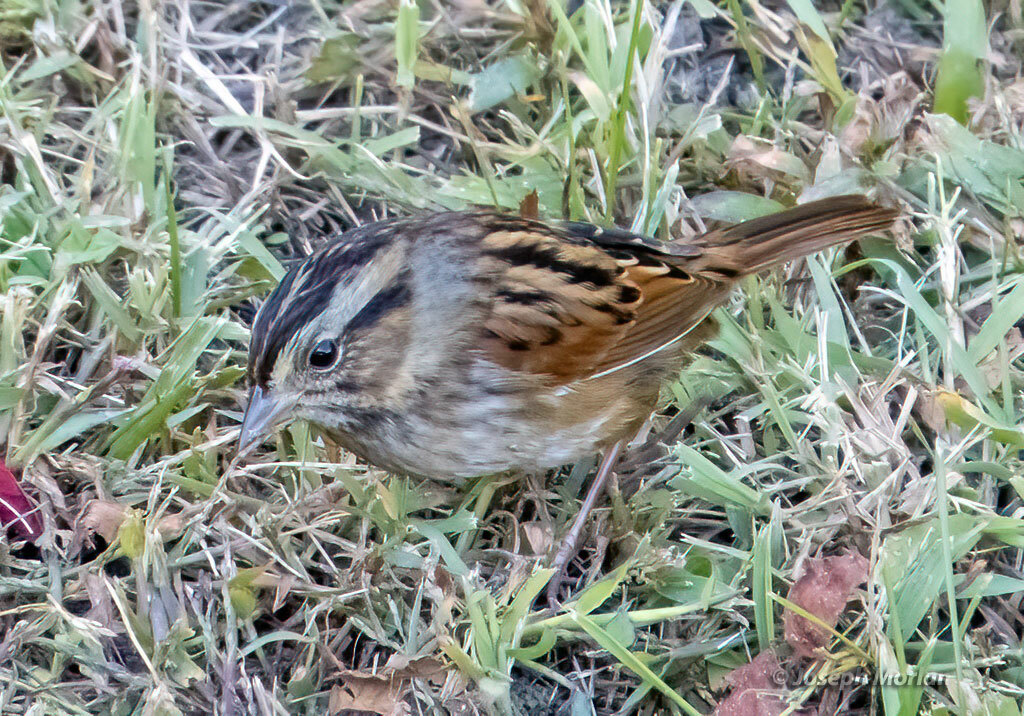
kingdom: Animalia
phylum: Chordata
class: Aves
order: Passeriformes
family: Passerellidae
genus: Melospiza
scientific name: Melospiza georgiana
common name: Swamp sparrow
